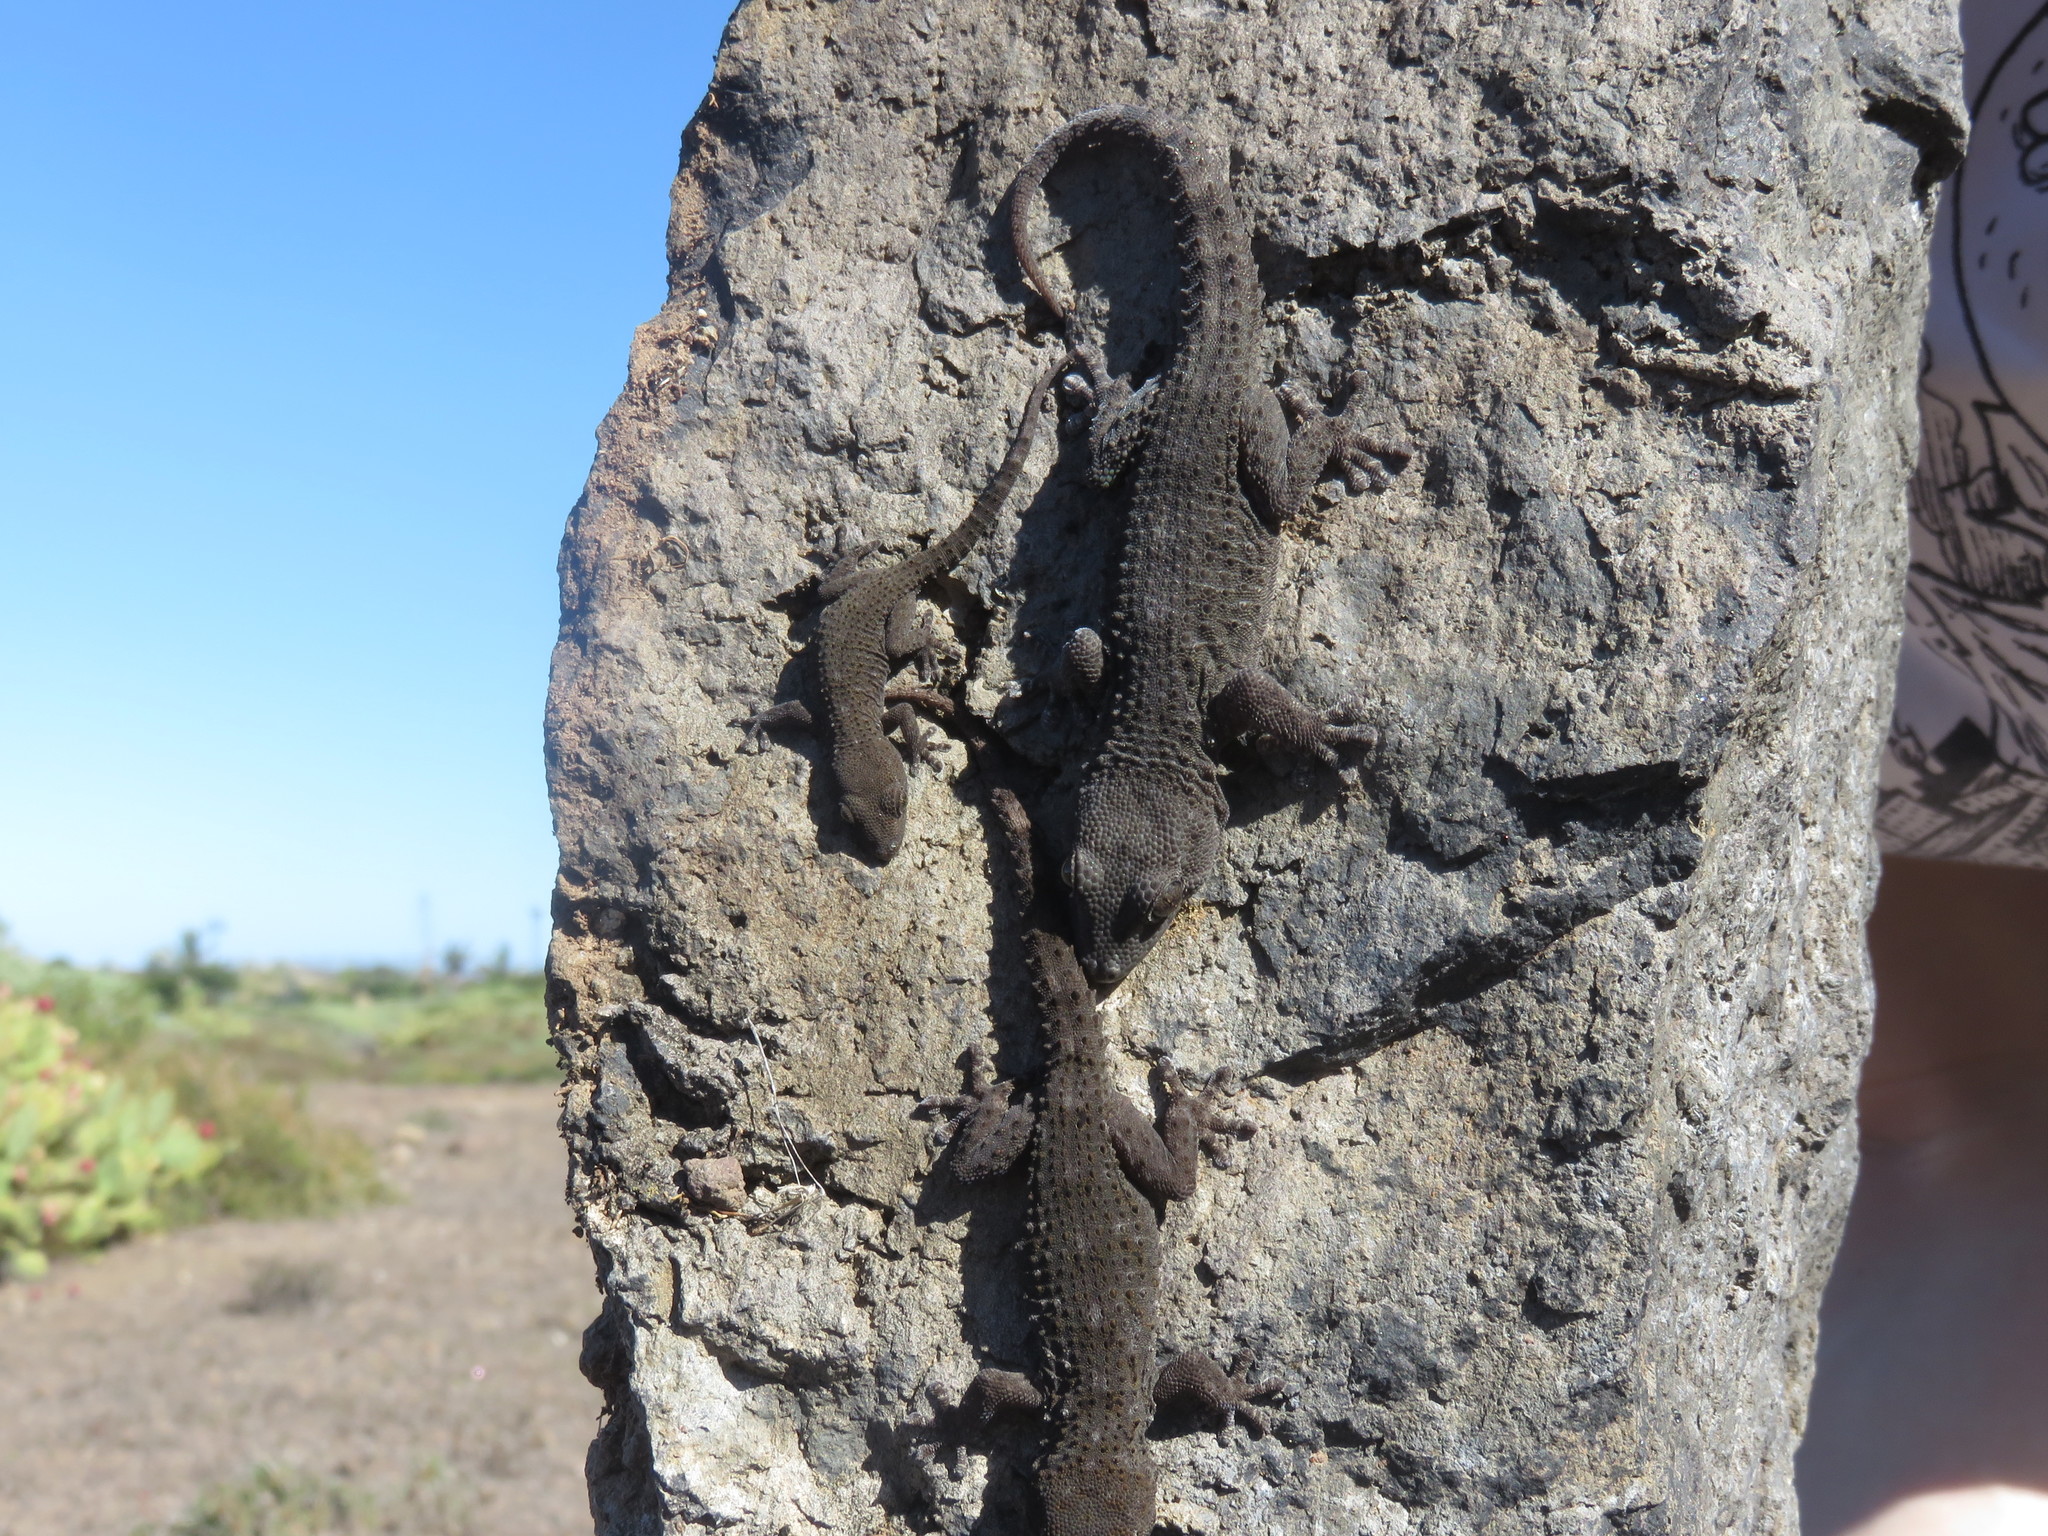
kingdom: Animalia
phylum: Chordata
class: Squamata
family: Phyllodactylidae
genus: Tarentola
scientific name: Tarentola delalandii
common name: Tenerife wall gecko
